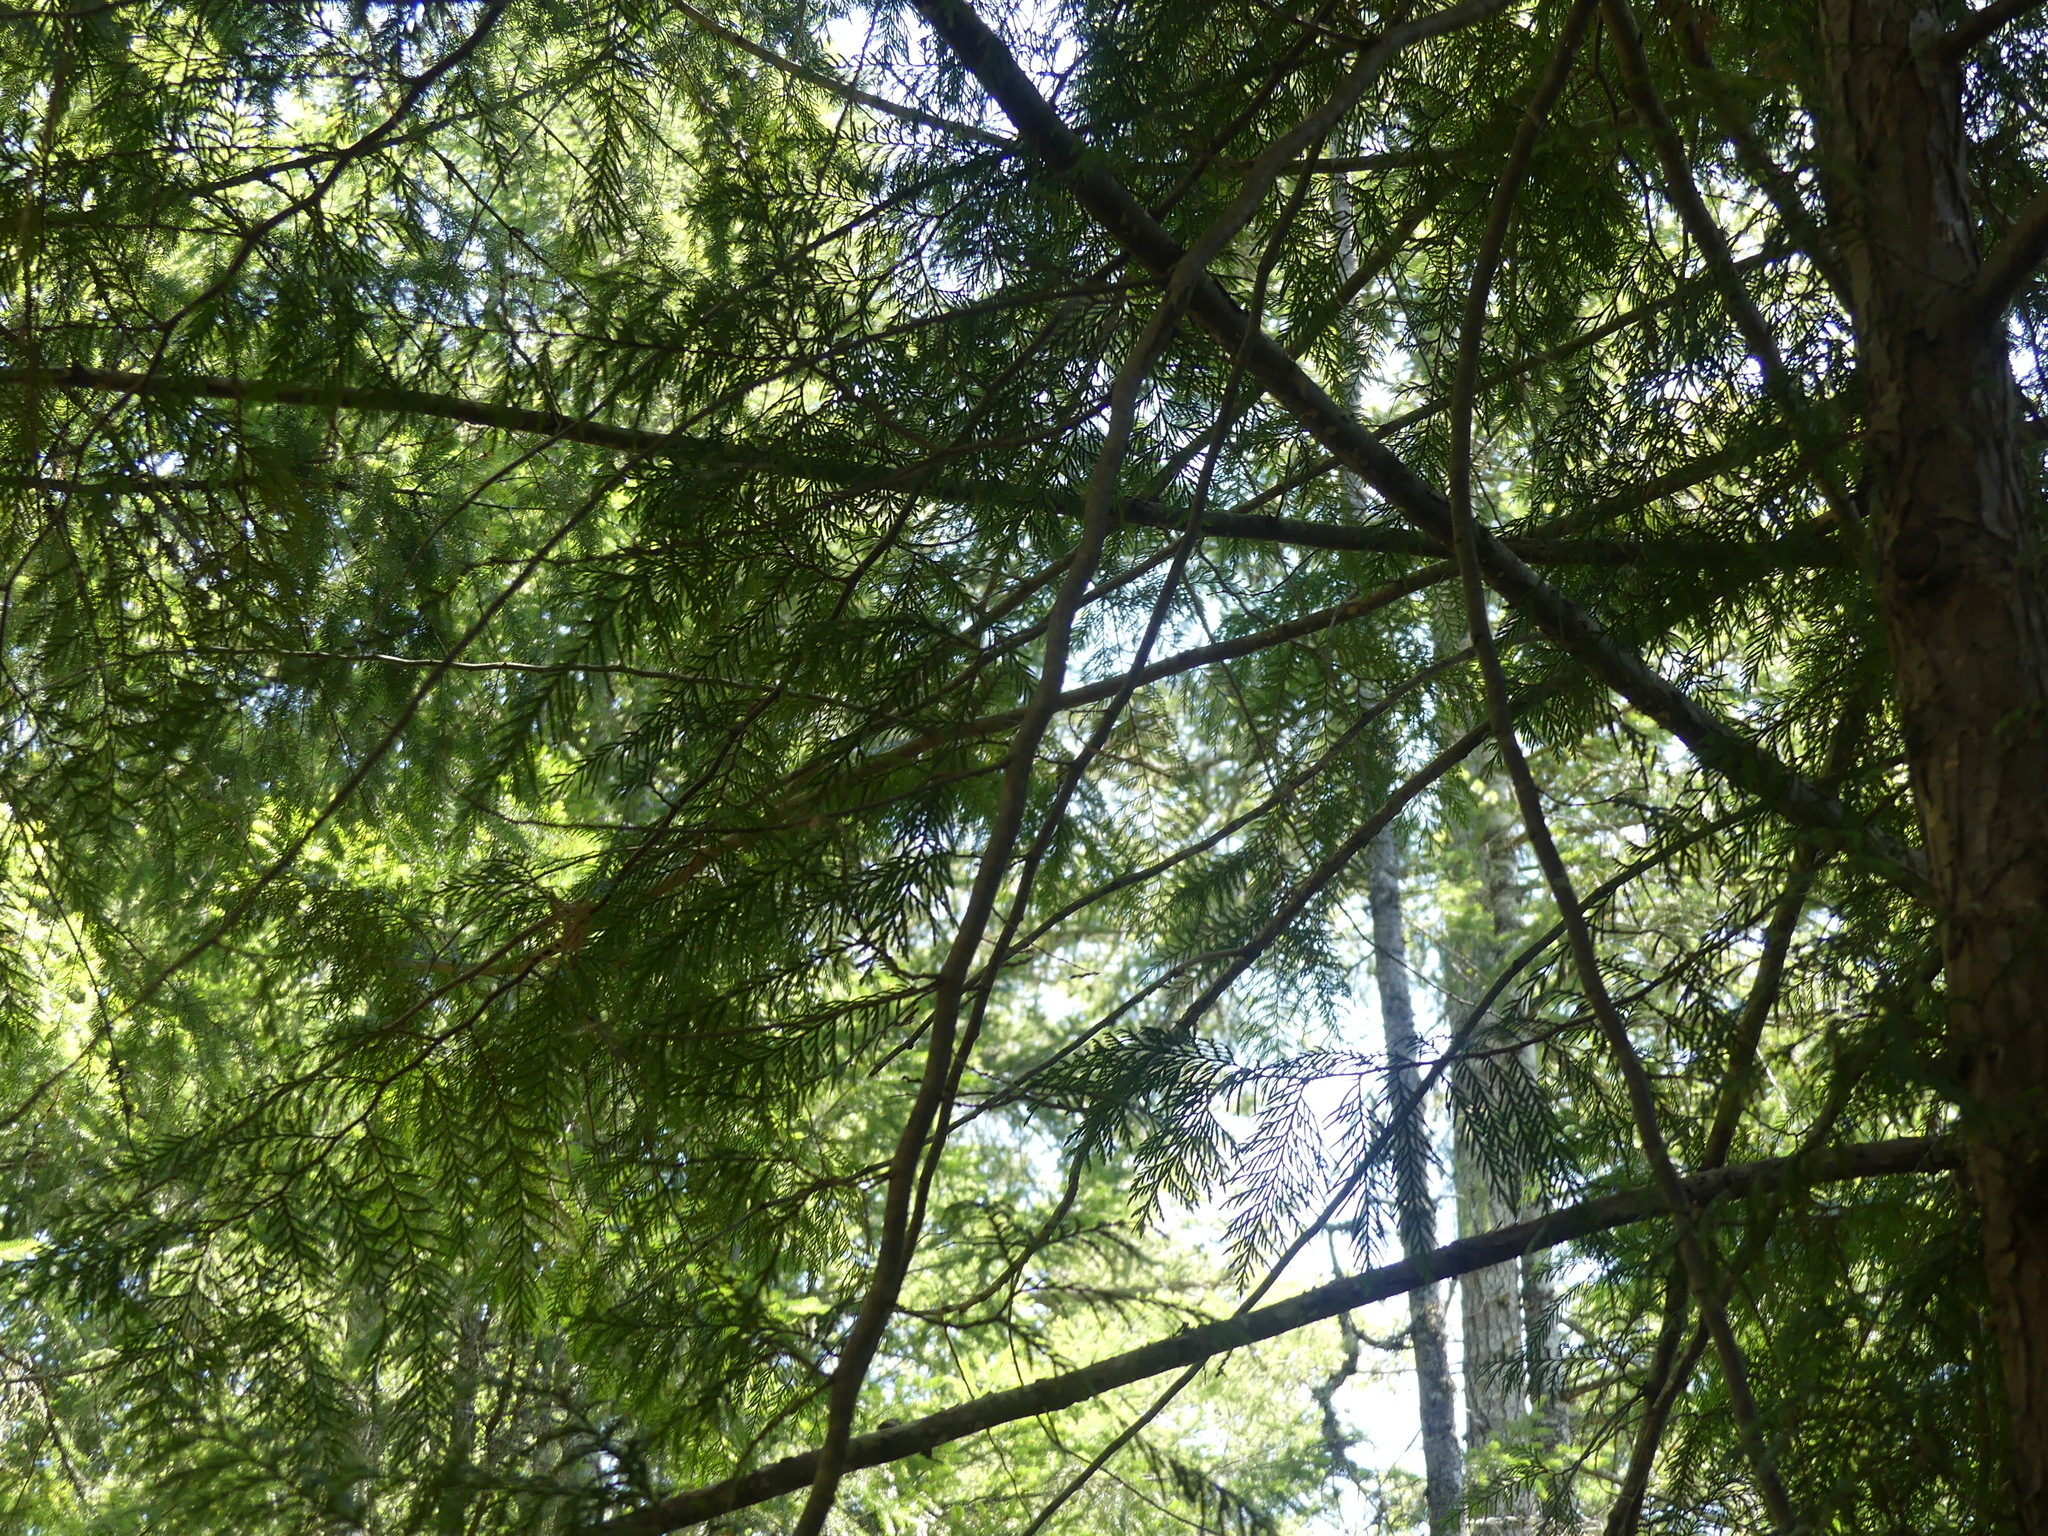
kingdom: Plantae
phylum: Tracheophyta
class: Pinopsida
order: Pinales
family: Cupressaceae
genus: Thuja
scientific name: Thuja plicata
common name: Western red-cedar
